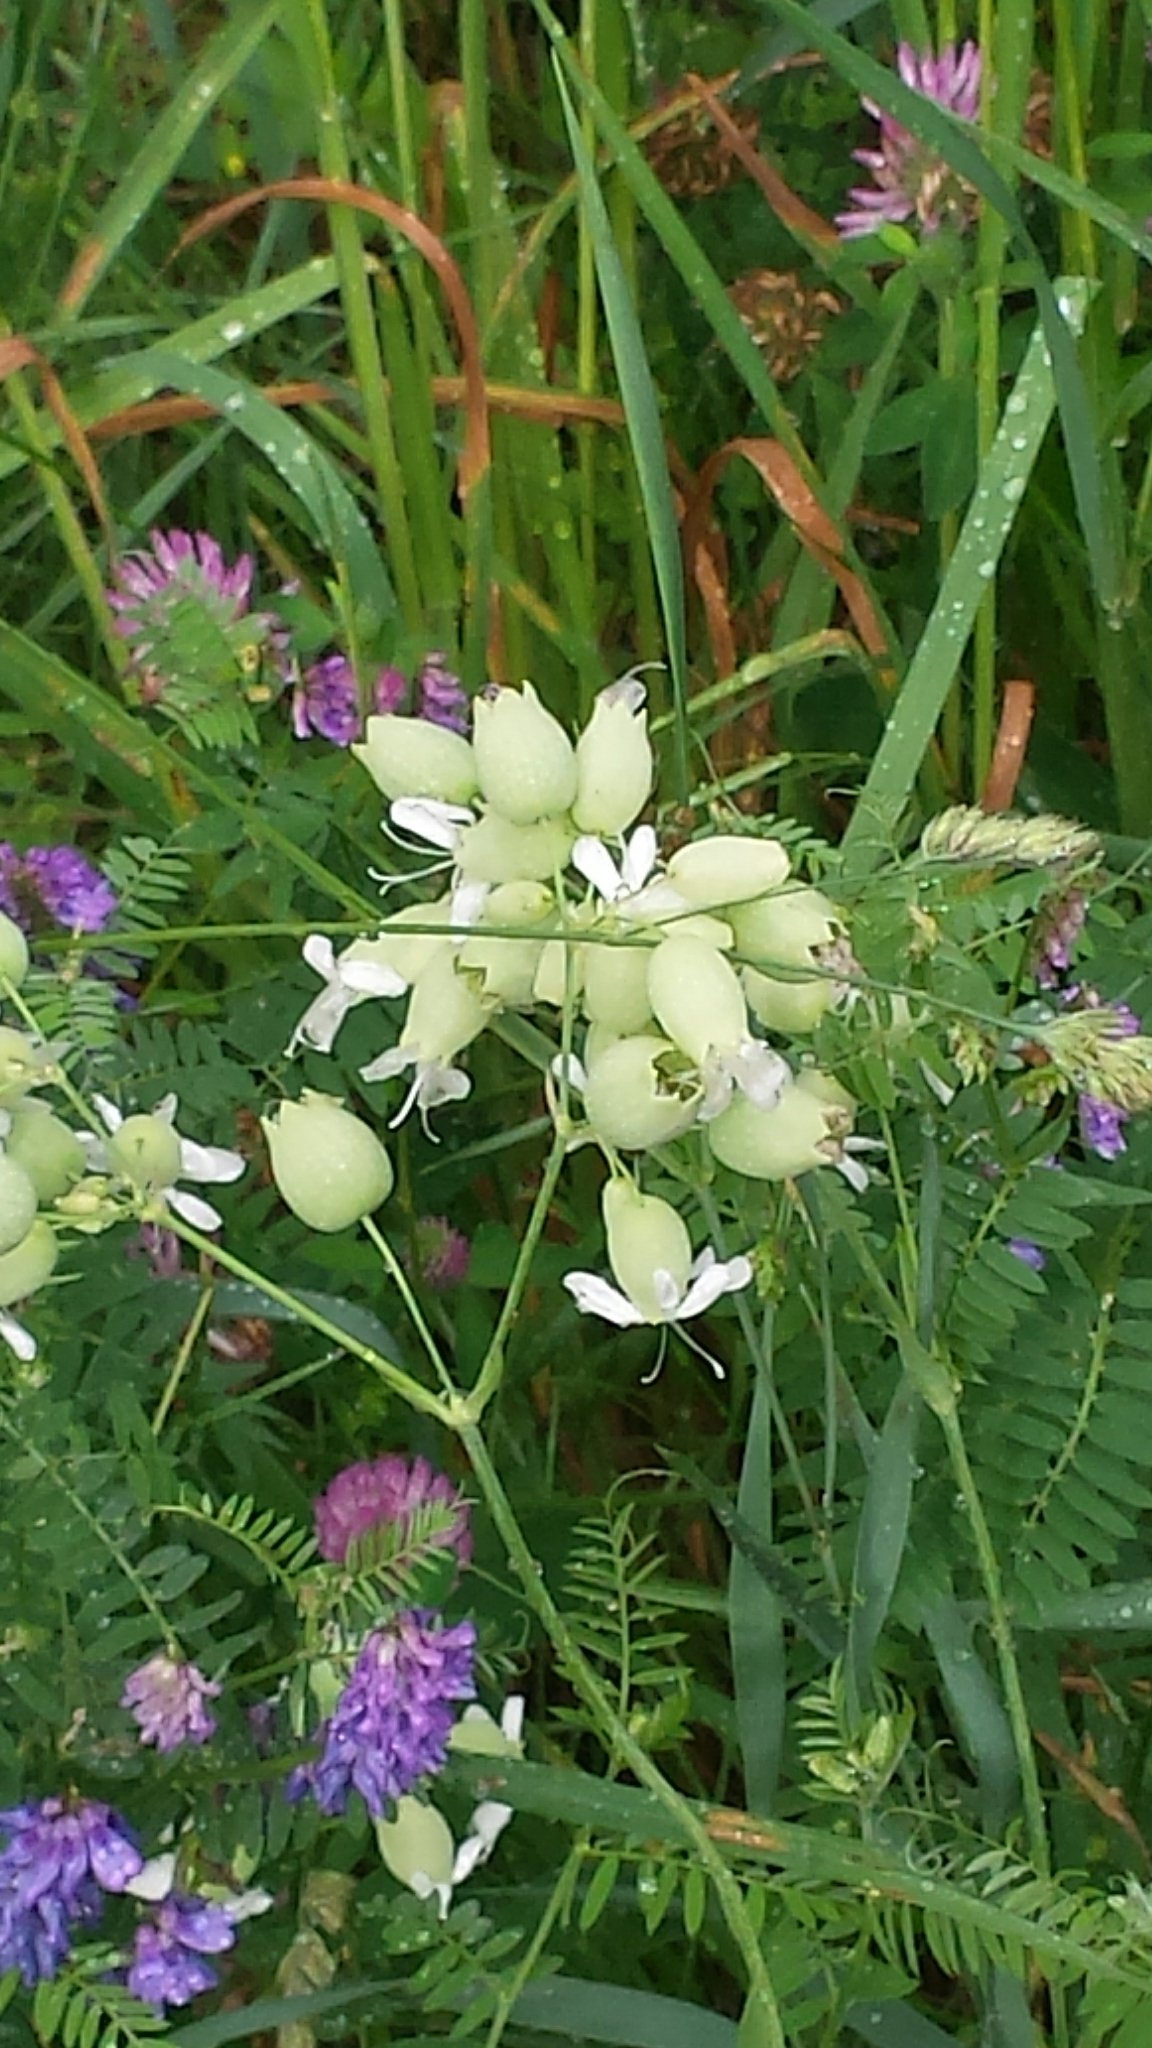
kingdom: Plantae
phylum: Tracheophyta
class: Magnoliopsida
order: Caryophyllales
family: Caryophyllaceae
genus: Silene
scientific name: Silene vulgaris
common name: Bladder campion
